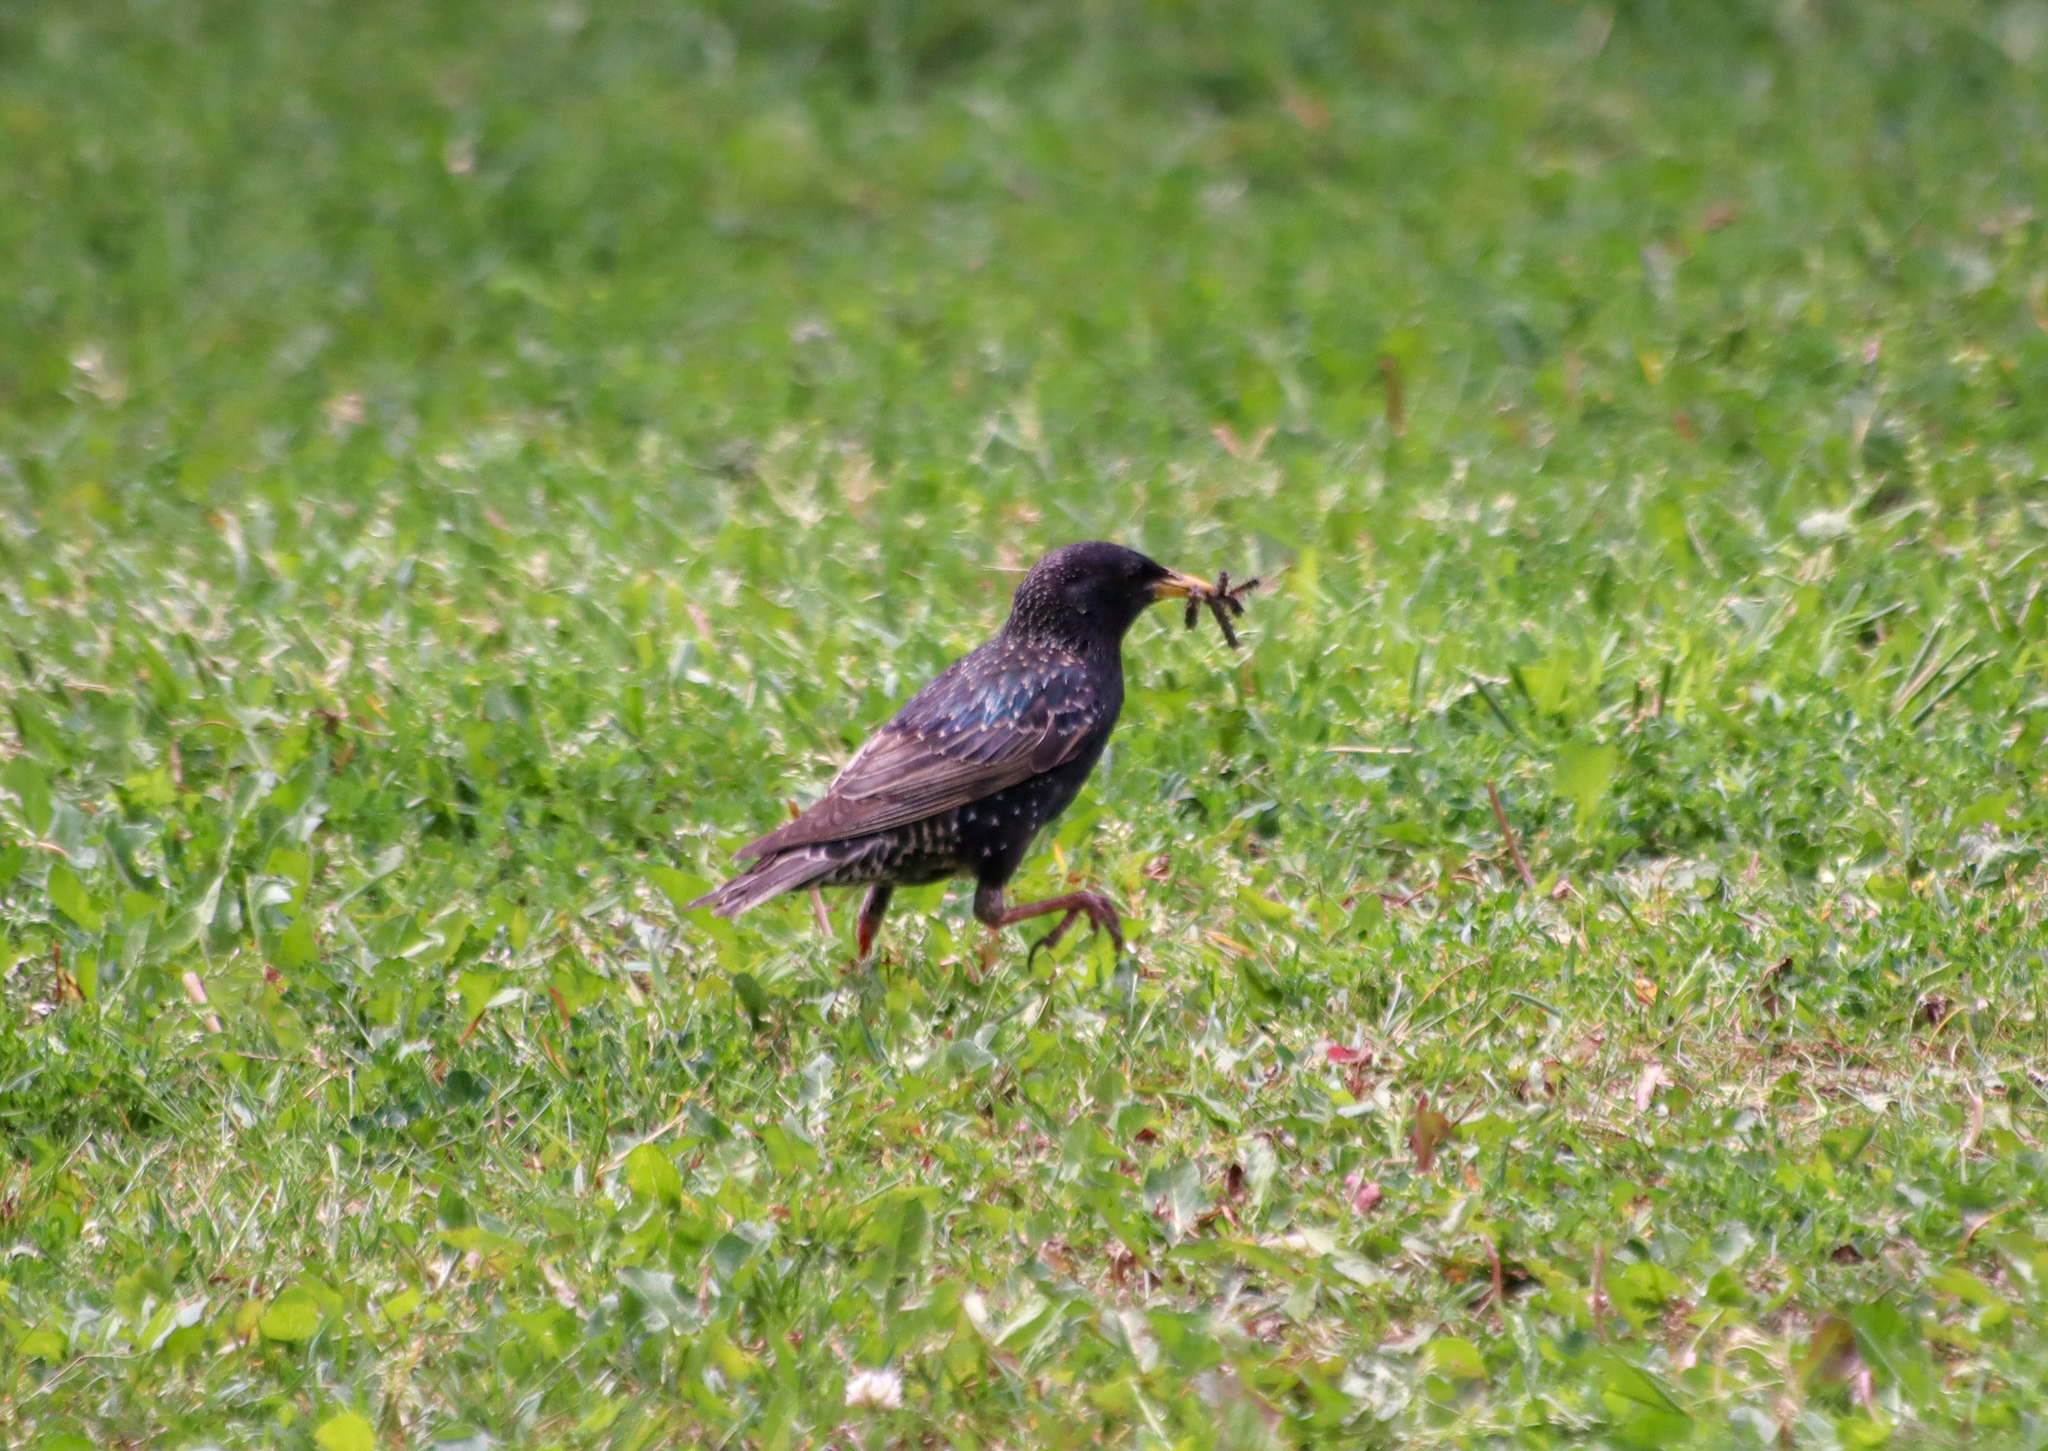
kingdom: Animalia
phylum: Chordata
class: Aves
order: Passeriformes
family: Sturnidae
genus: Sturnus
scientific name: Sturnus vulgaris
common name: Common starling
